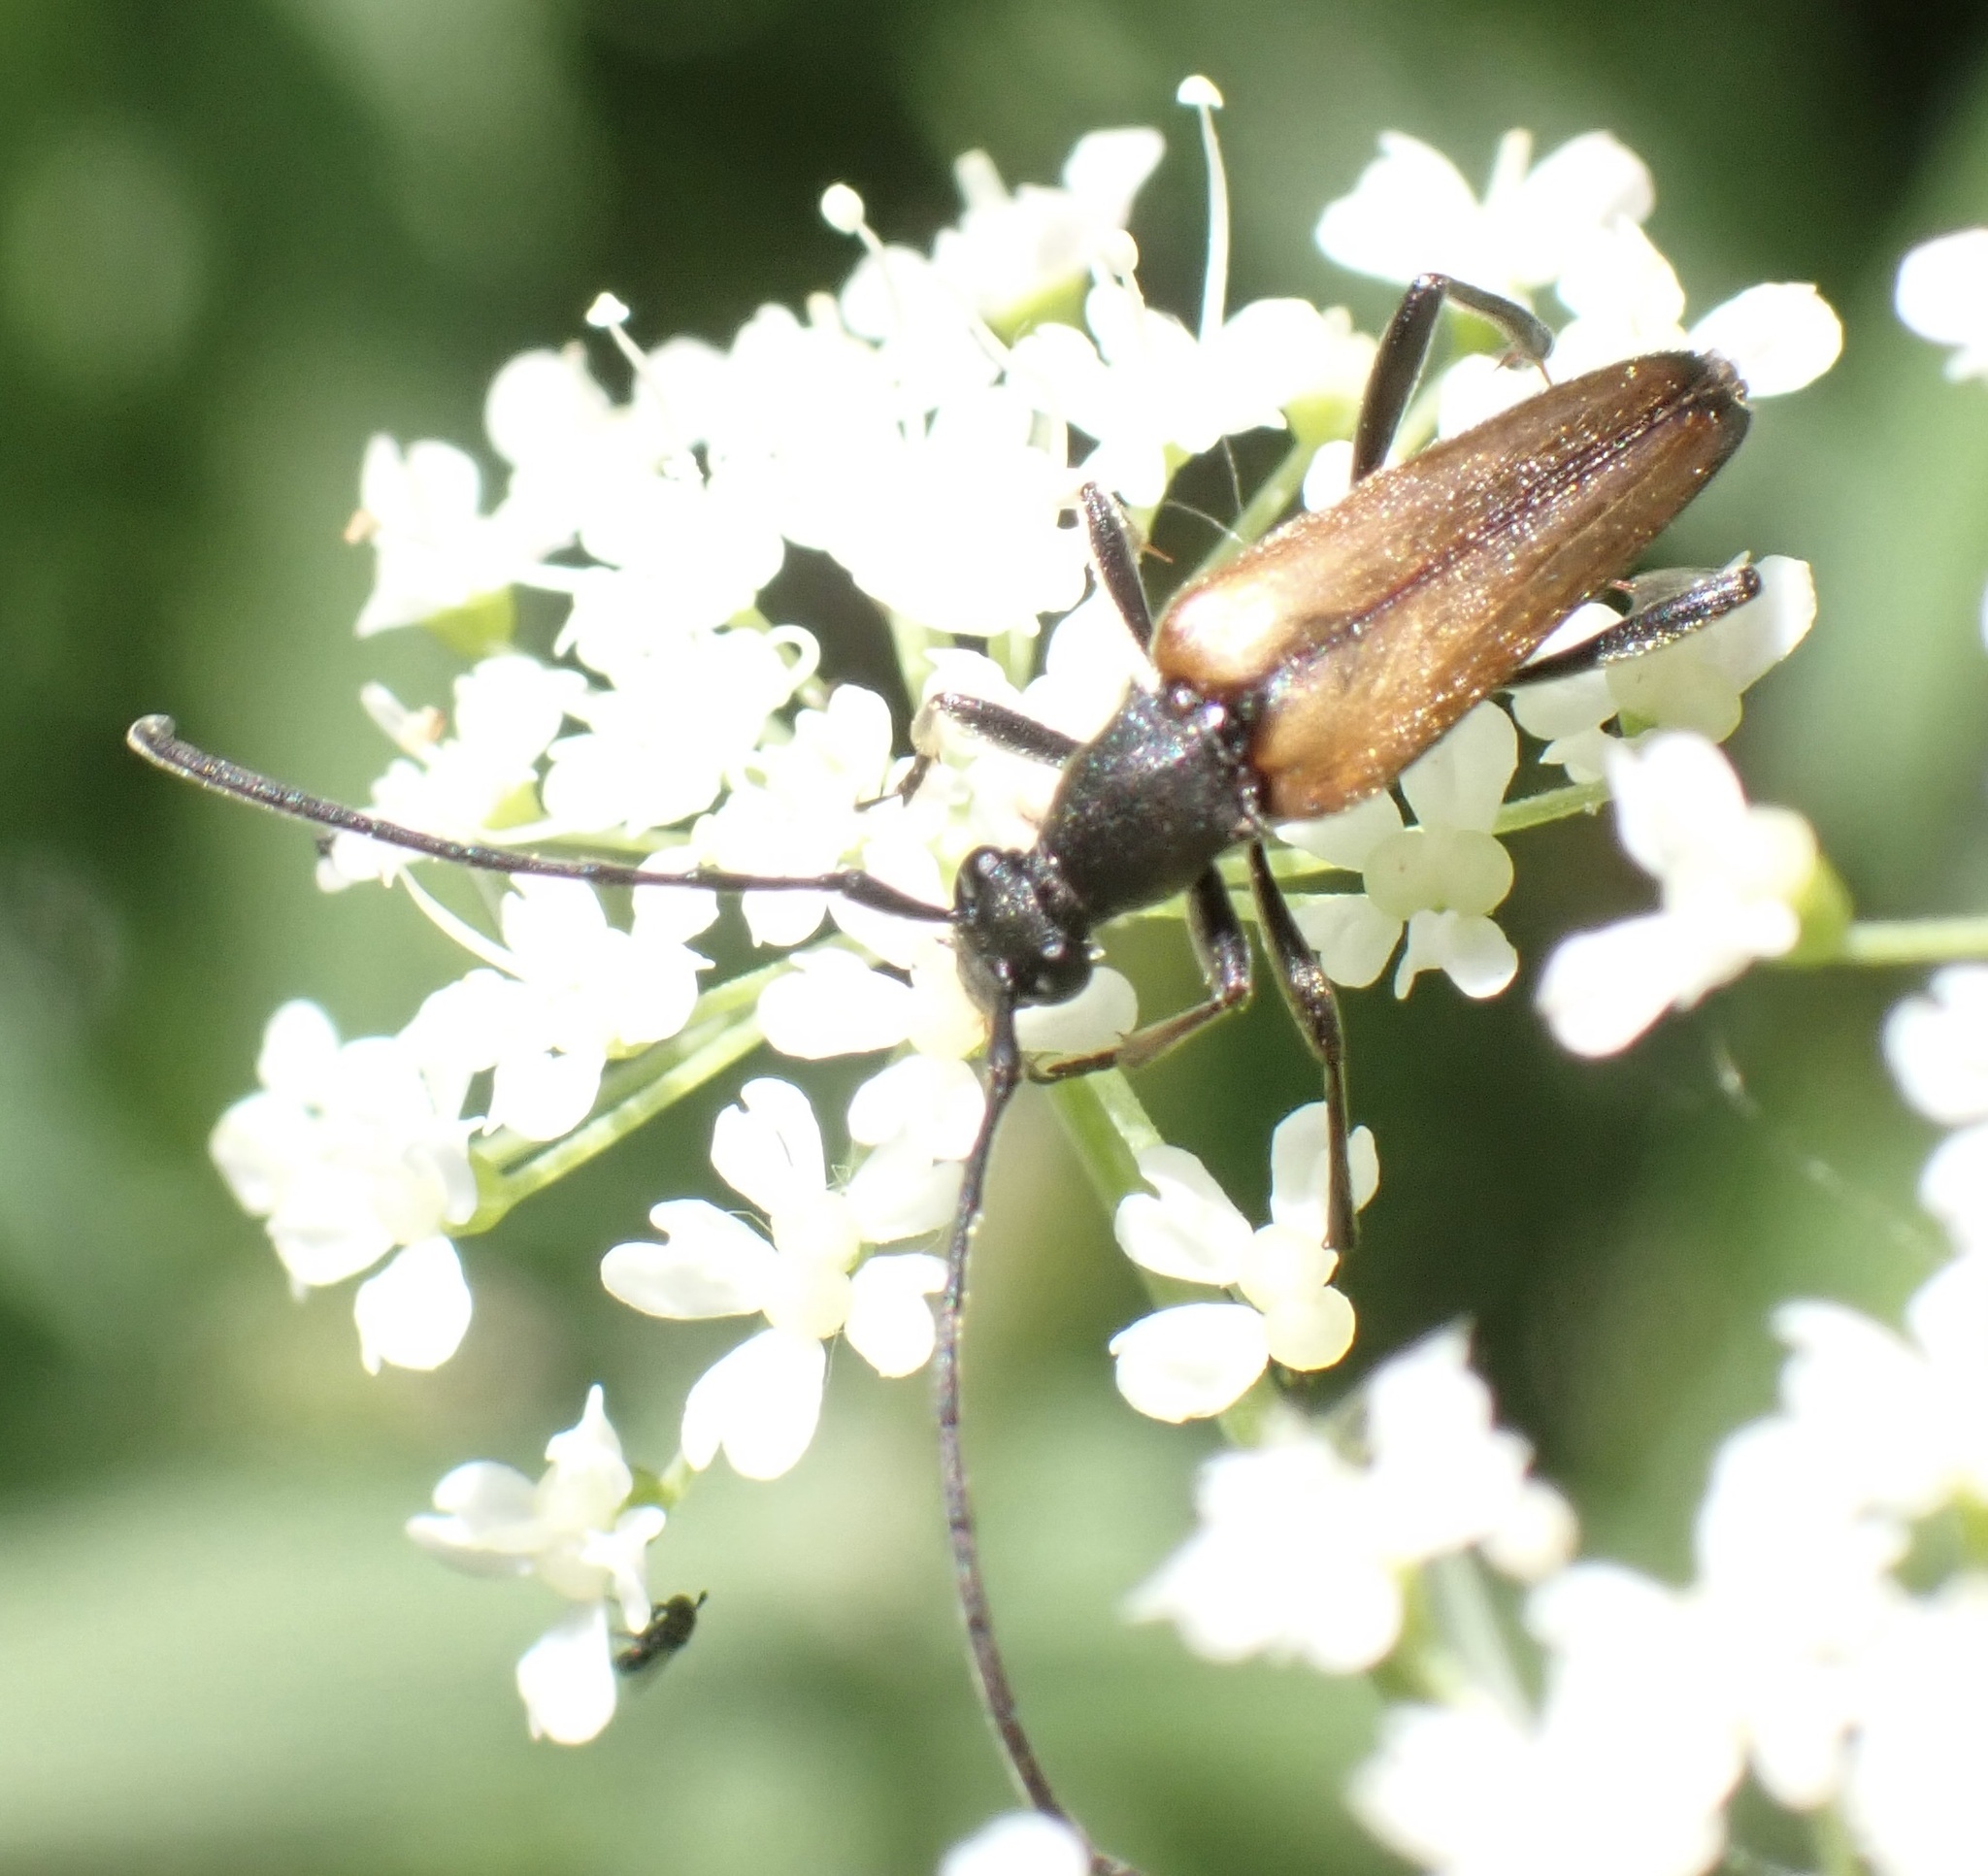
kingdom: Animalia
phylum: Arthropoda
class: Insecta
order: Coleoptera
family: Cerambycidae
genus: Stenurella
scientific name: Stenurella melanura
